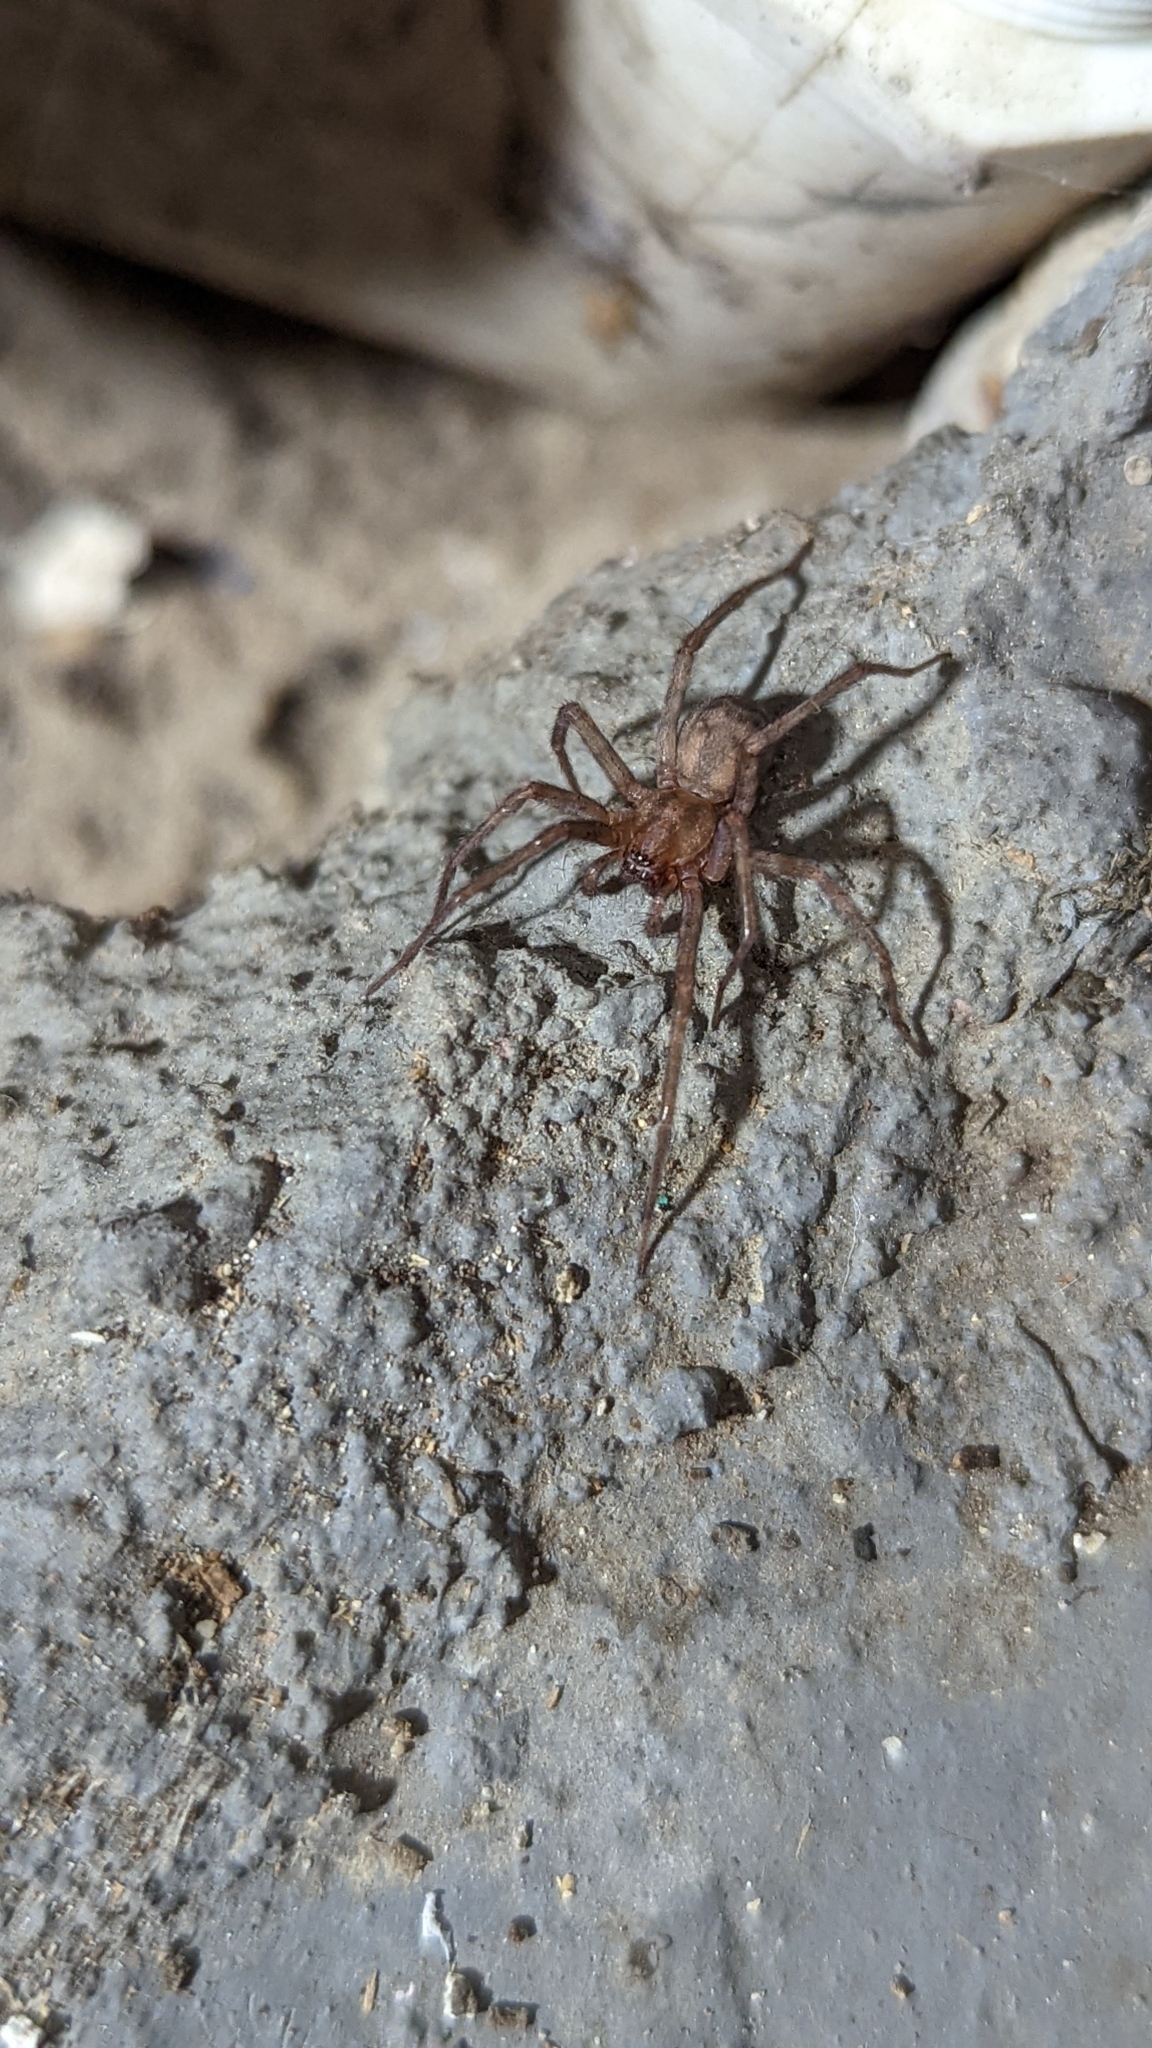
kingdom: Animalia
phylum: Arthropoda
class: Arachnida
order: Araneae
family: Agelenidae
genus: Tegenaria
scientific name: Tegenaria domestica
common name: Barn funnel weaver
